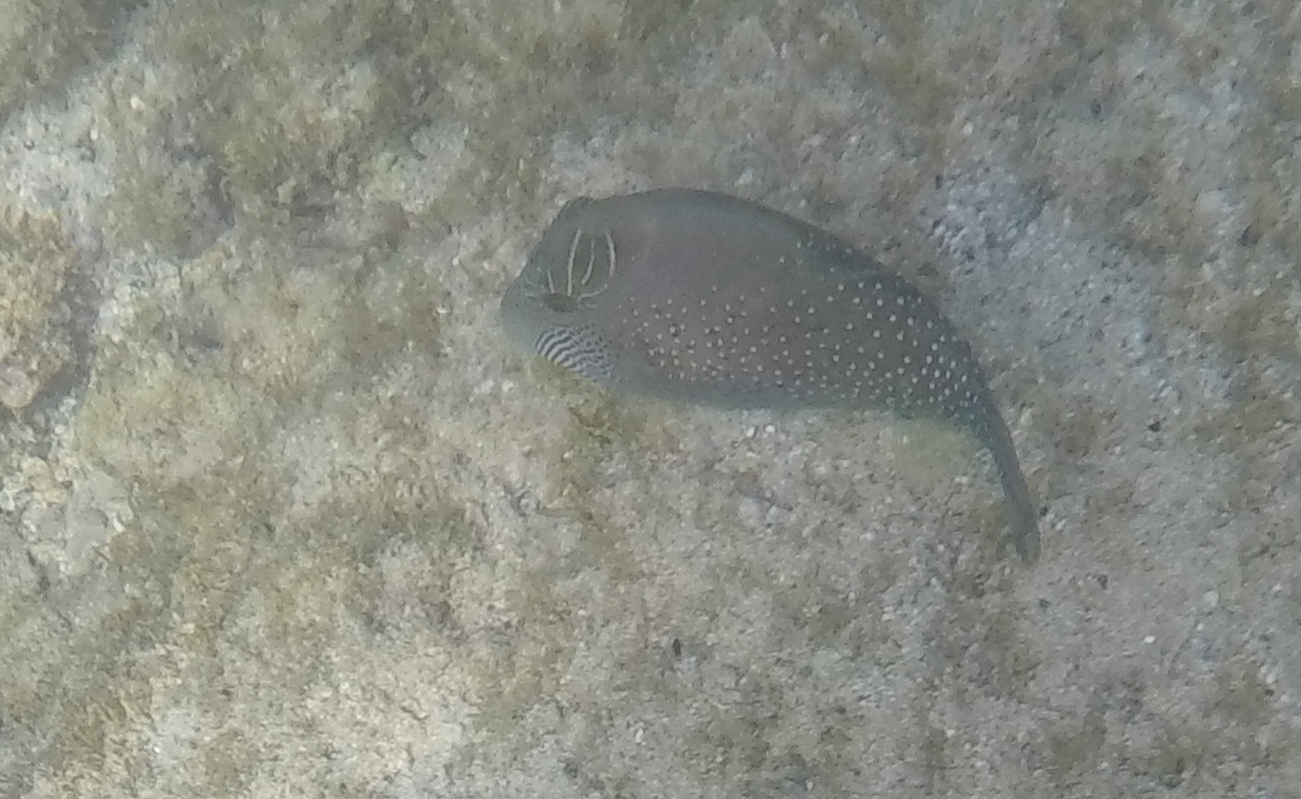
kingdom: Animalia
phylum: Chordata
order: Tetraodontiformes
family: Tetraodontidae
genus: Canthigaster
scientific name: Canthigaster amboinensis
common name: Ambon pufferfish
